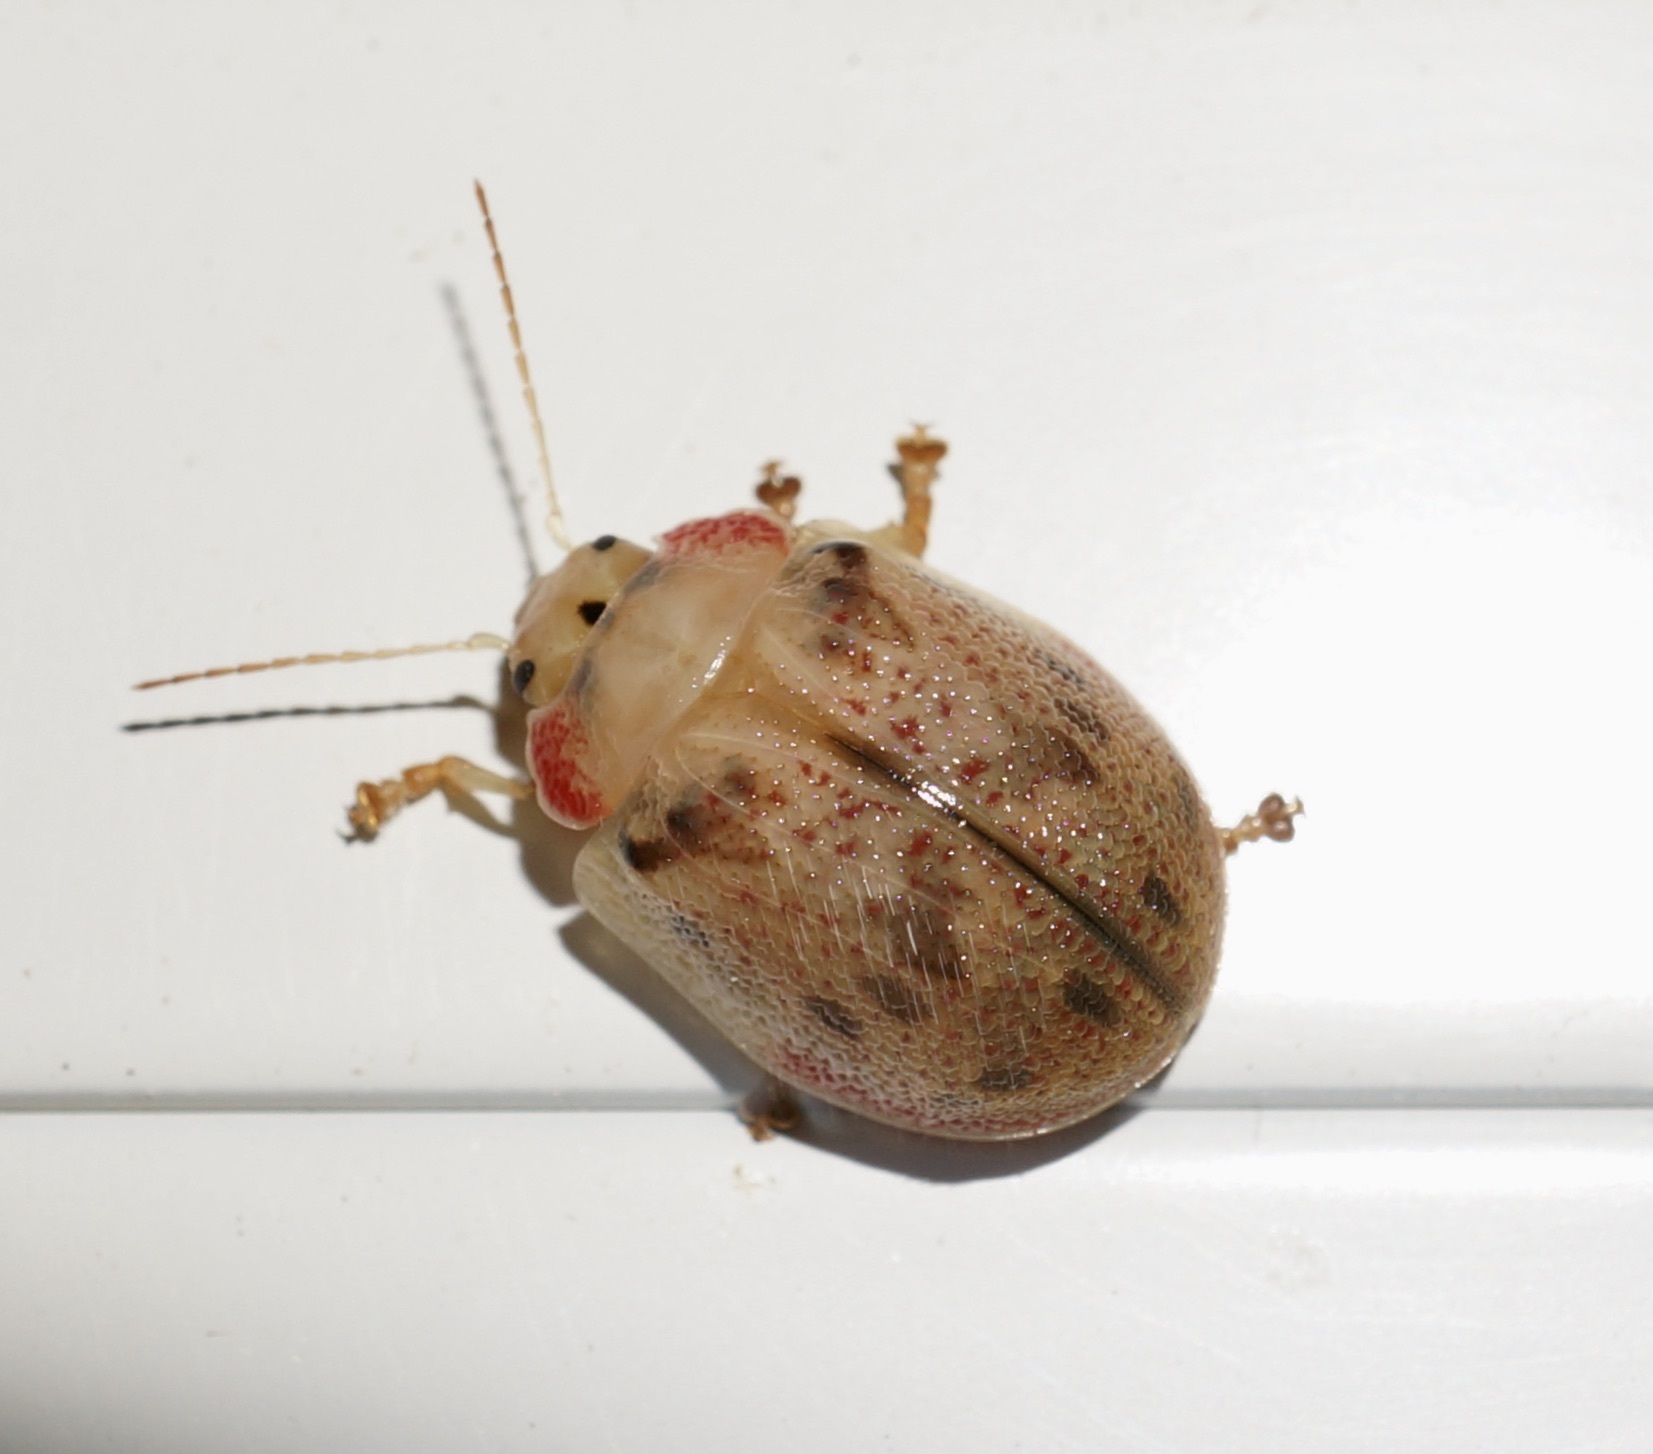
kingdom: Animalia
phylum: Arthropoda
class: Insecta
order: Coleoptera
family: Chrysomelidae
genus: Paropsis
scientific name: Paropsis charybdis
